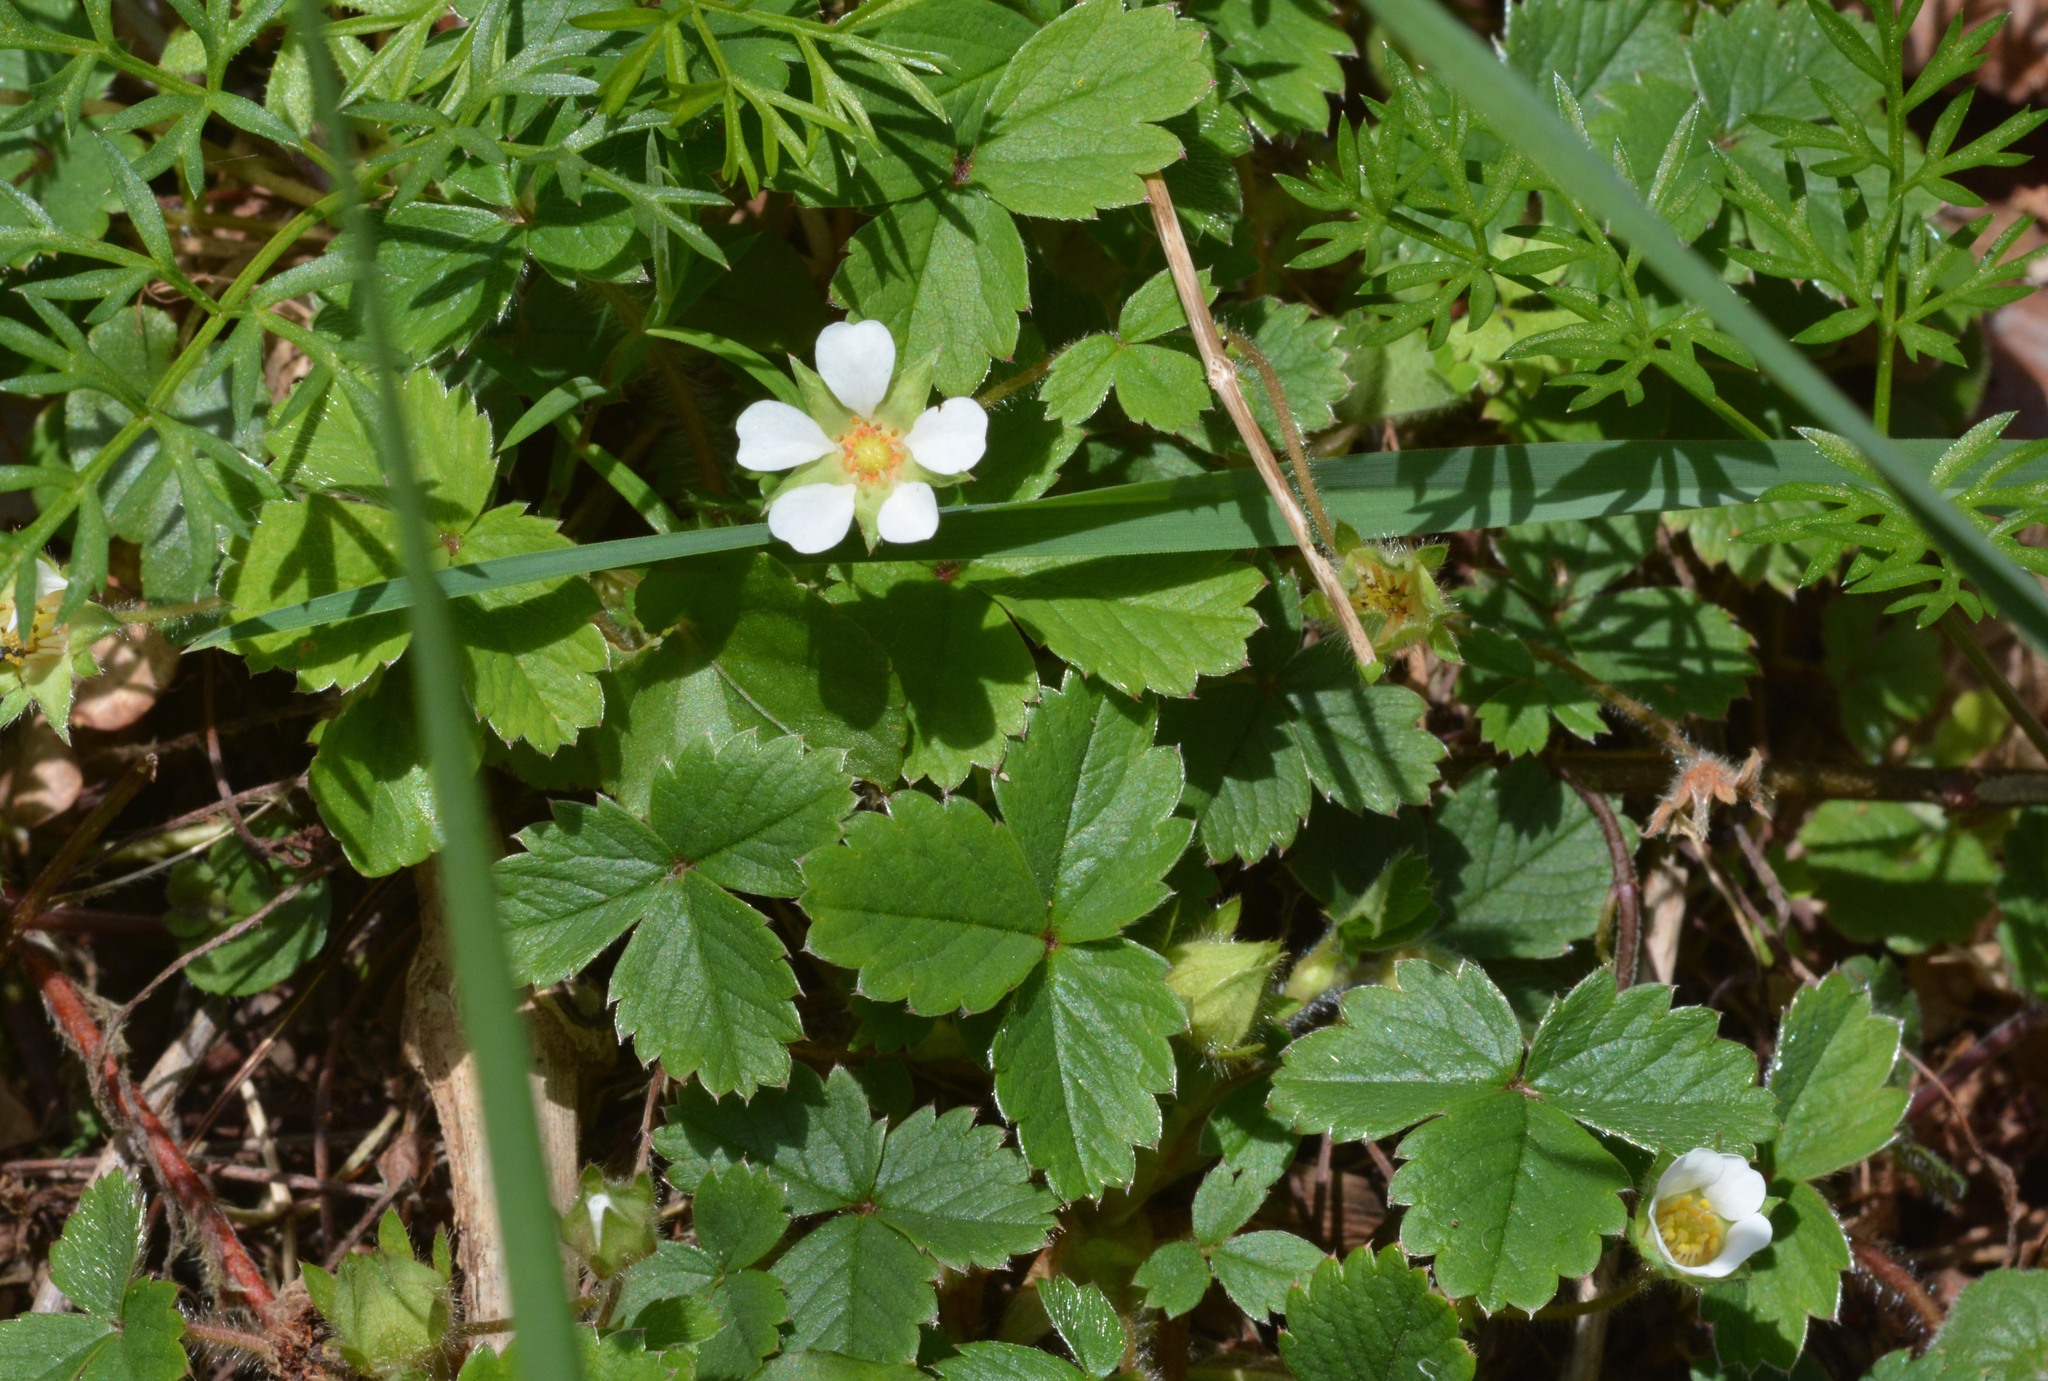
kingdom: Plantae
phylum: Tracheophyta
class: Magnoliopsida
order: Rosales
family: Rosaceae
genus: Potentilla
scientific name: Potentilla sterilis
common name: Barren strawberry
